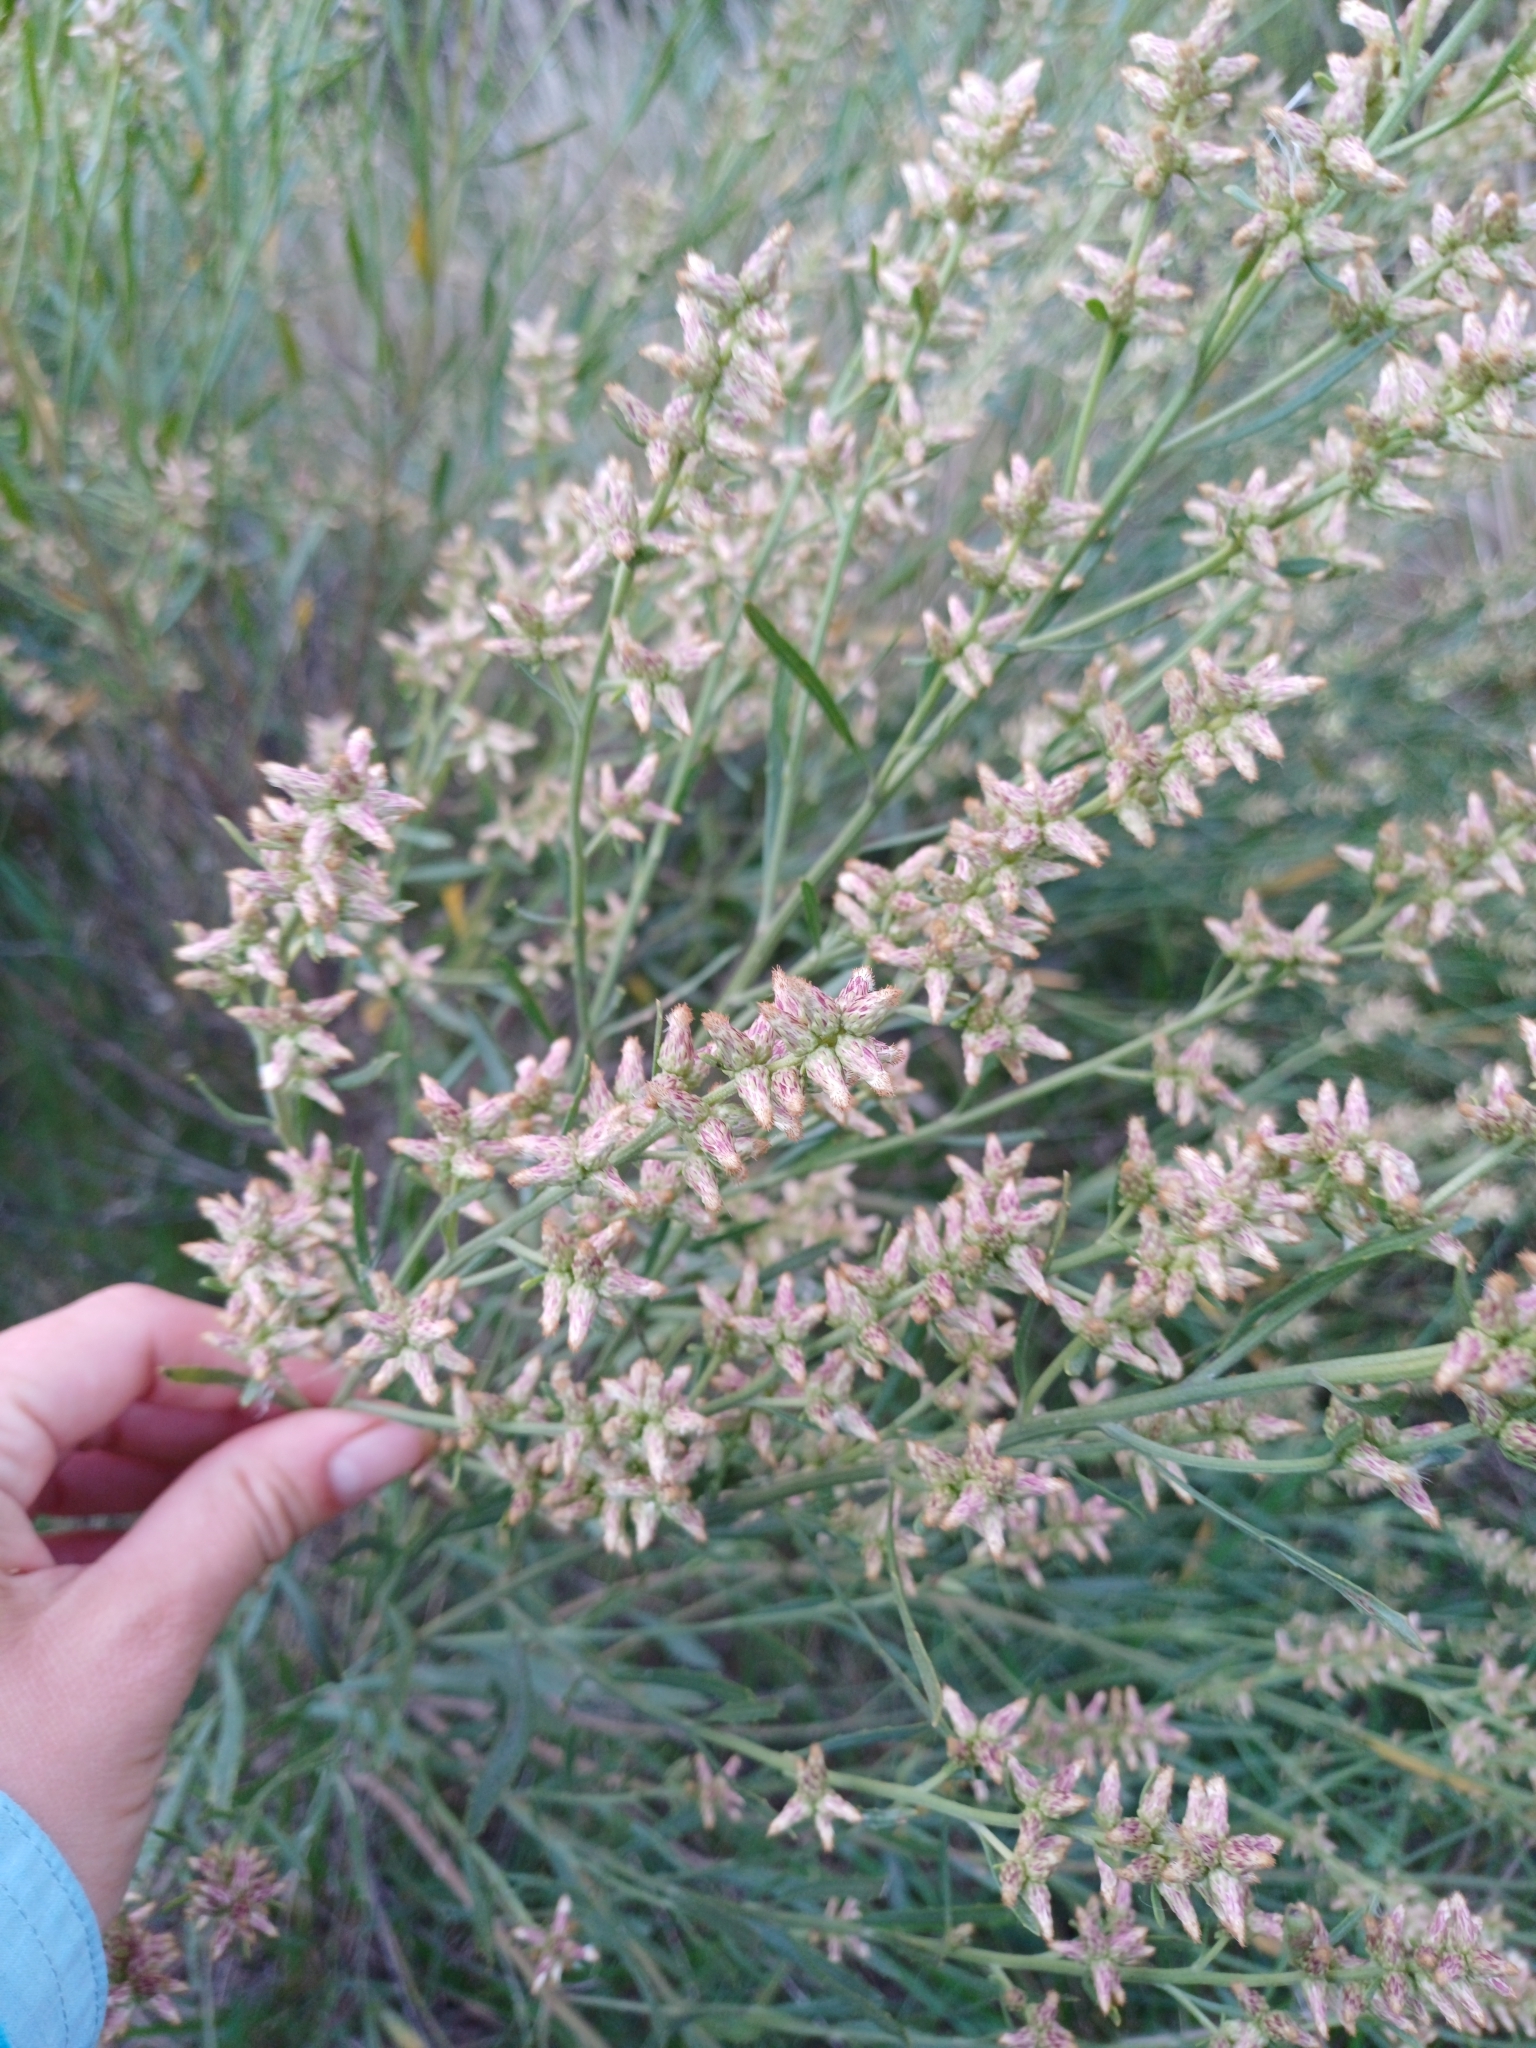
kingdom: Plantae
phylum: Tracheophyta
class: Magnoliopsida
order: Asterales
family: Asteraceae
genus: Baccharis
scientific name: Baccharis spicata
